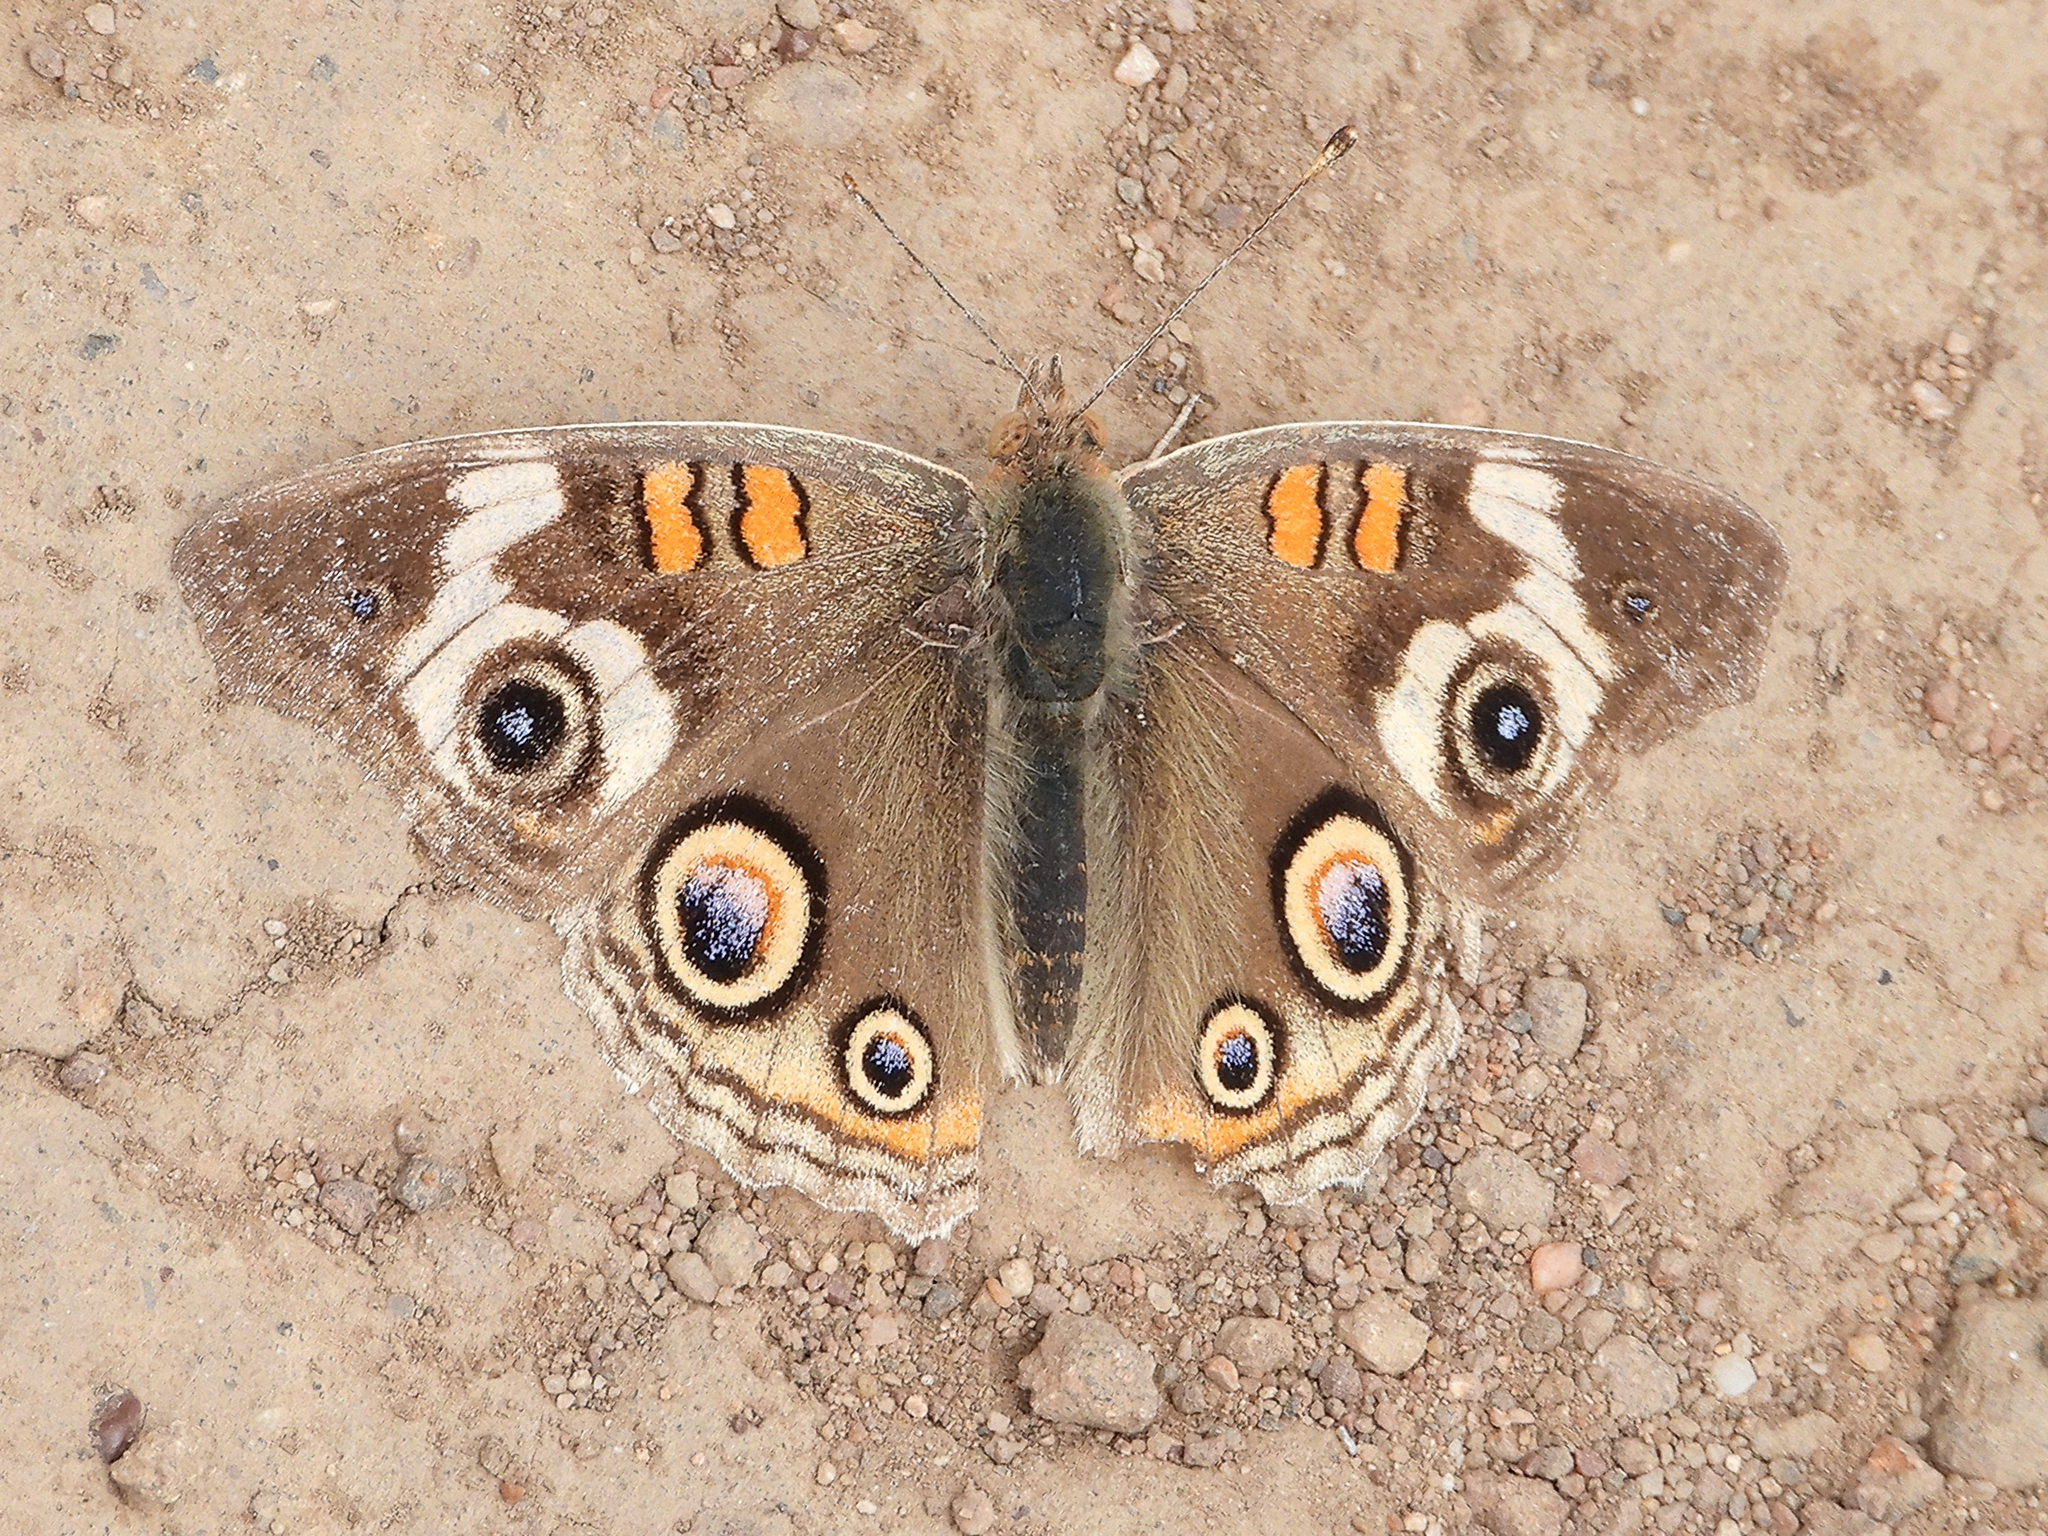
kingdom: Animalia
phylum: Arthropoda
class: Insecta
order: Lepidoptera
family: Nymphalidae
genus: Junonia
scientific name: Junonia grisea
